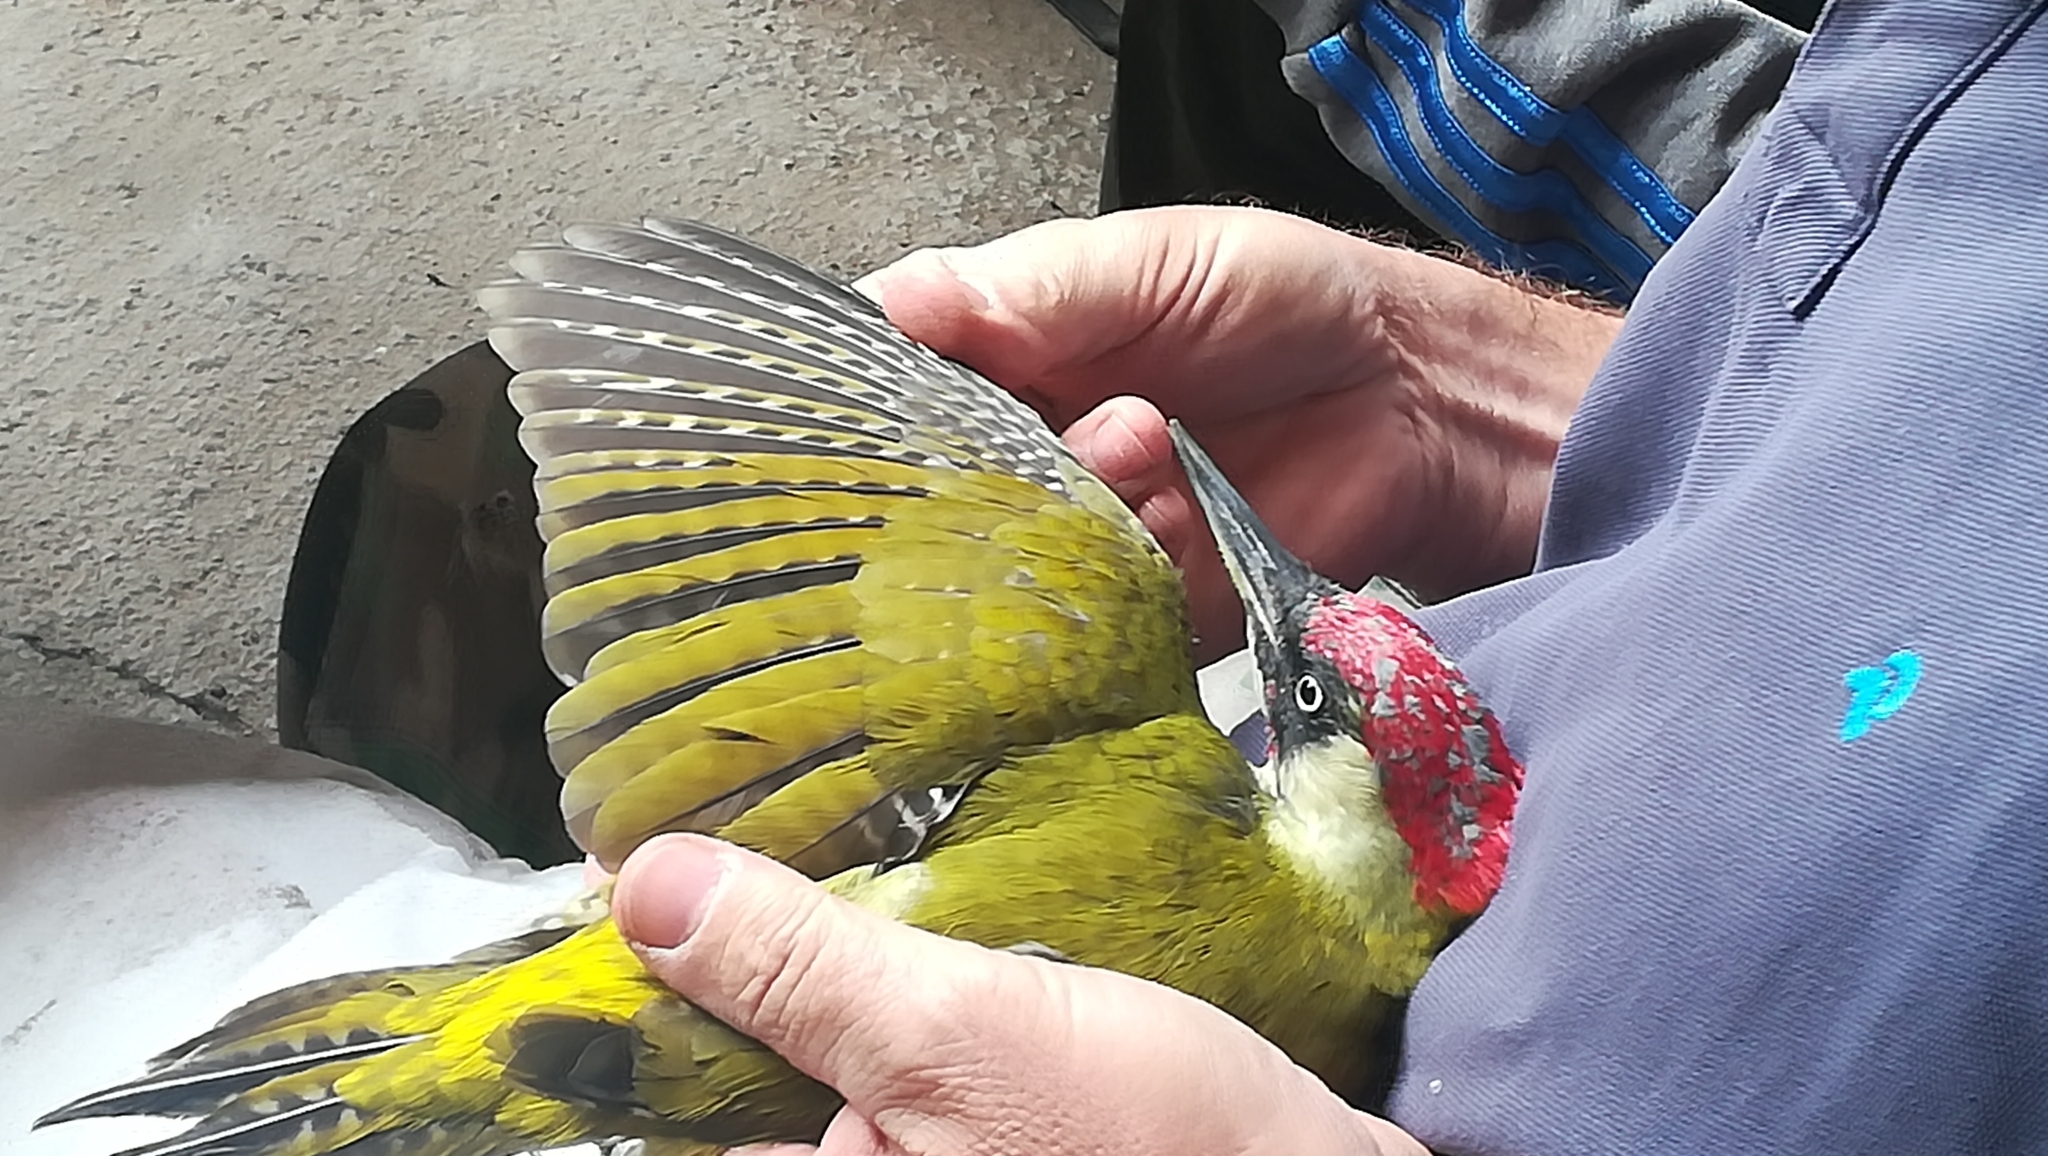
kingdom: Animalia
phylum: Chordata
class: Aves
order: Piciformes
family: Picidae
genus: Picus
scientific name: Picus viridis
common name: European green woodpecker
